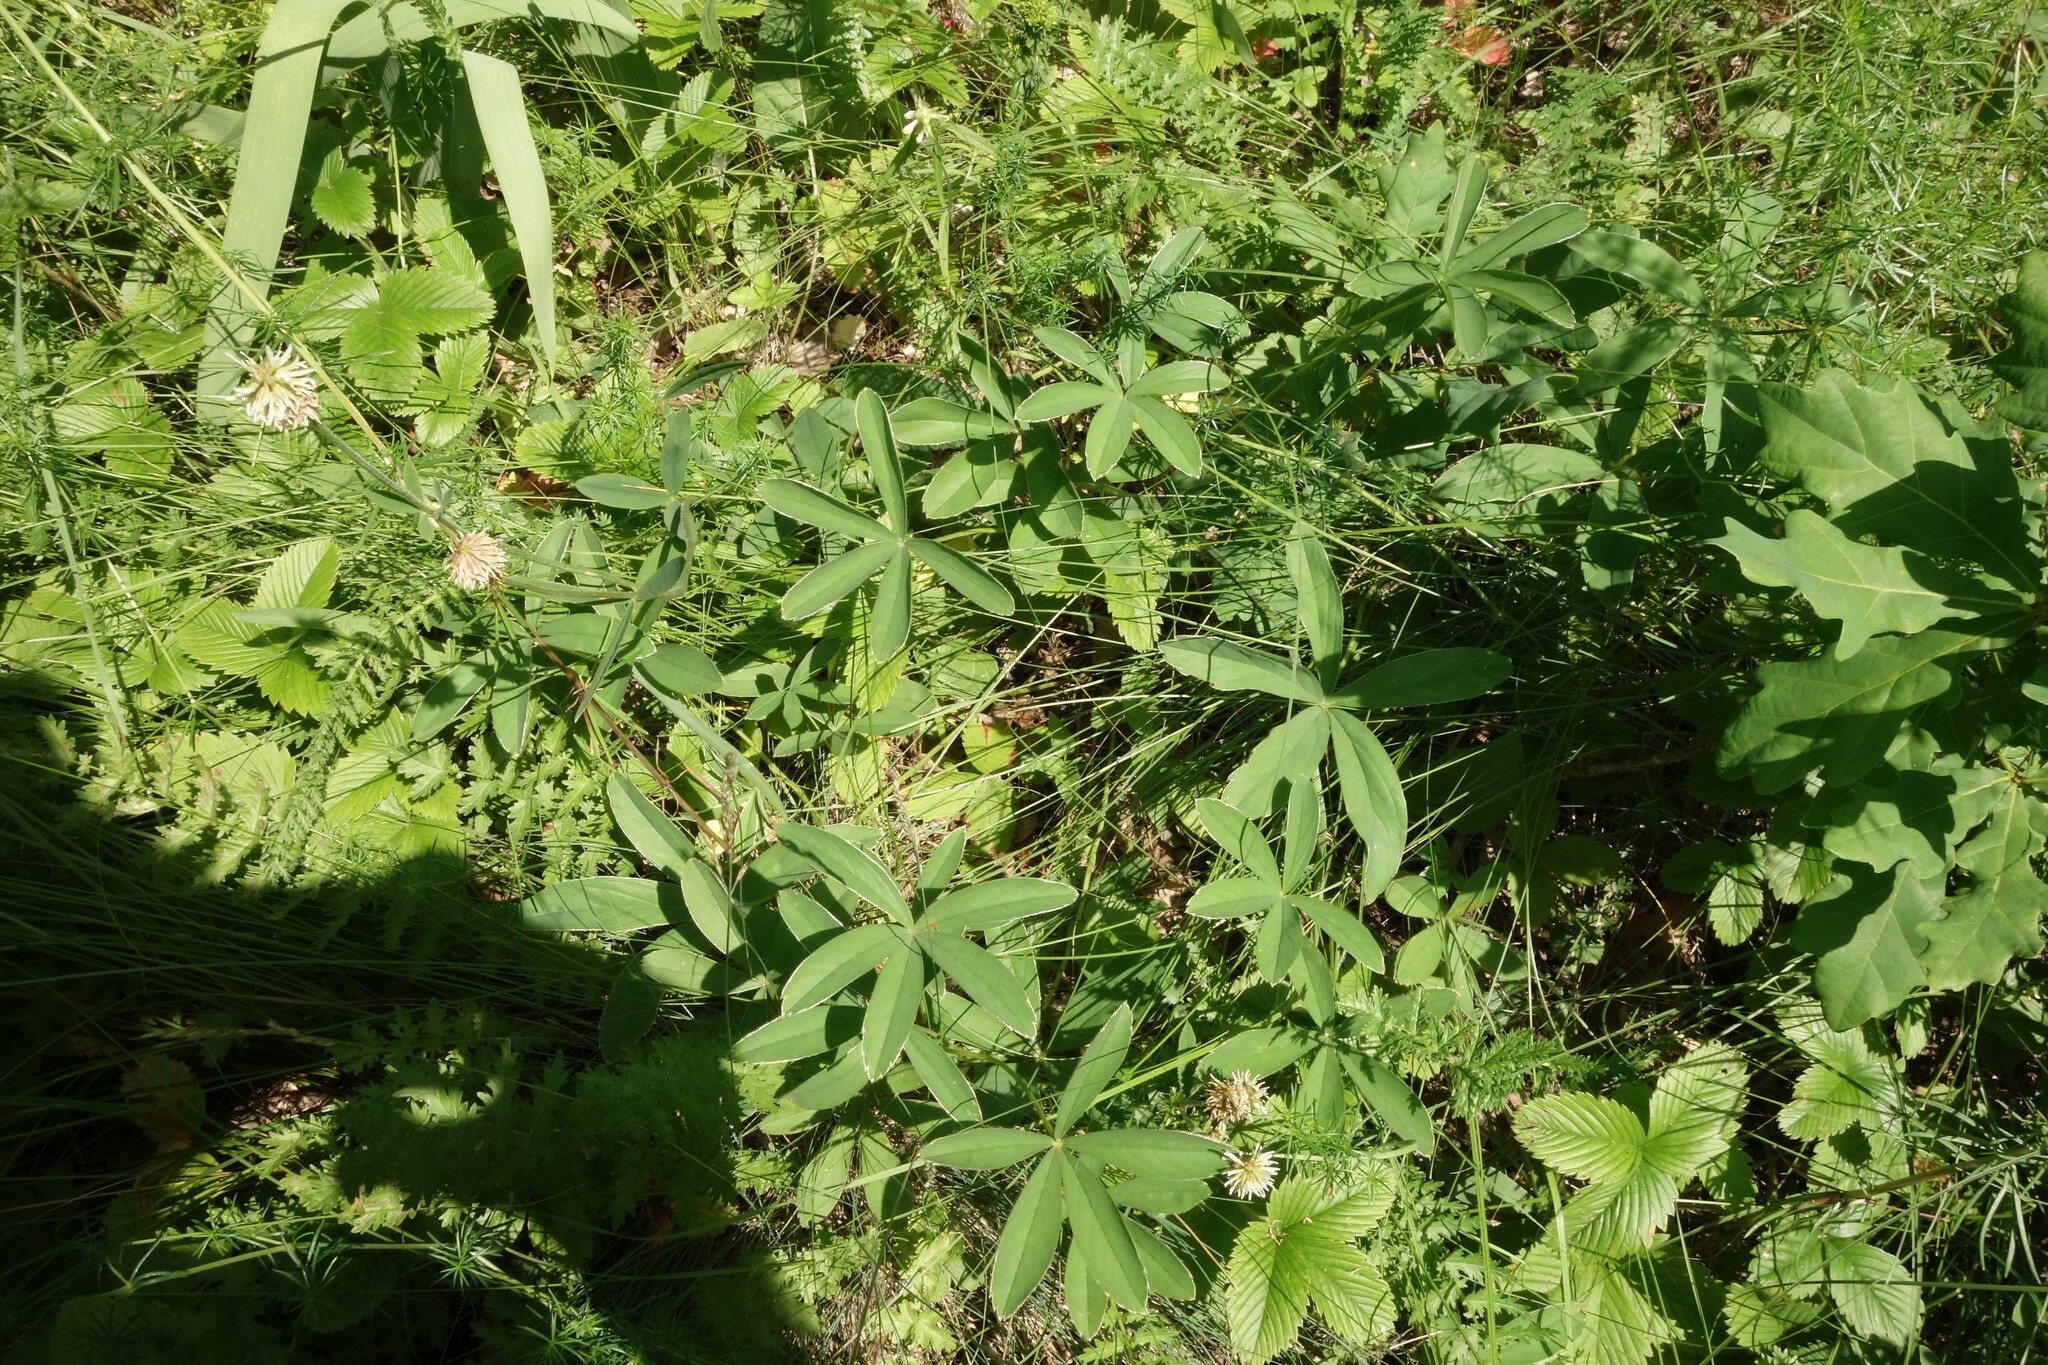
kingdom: Plantae
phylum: Tracheophyta
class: Magnoliopsida
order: Rosales
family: Rosaceae
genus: Potentilla
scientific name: Potentilla alba
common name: White cinquefoil
